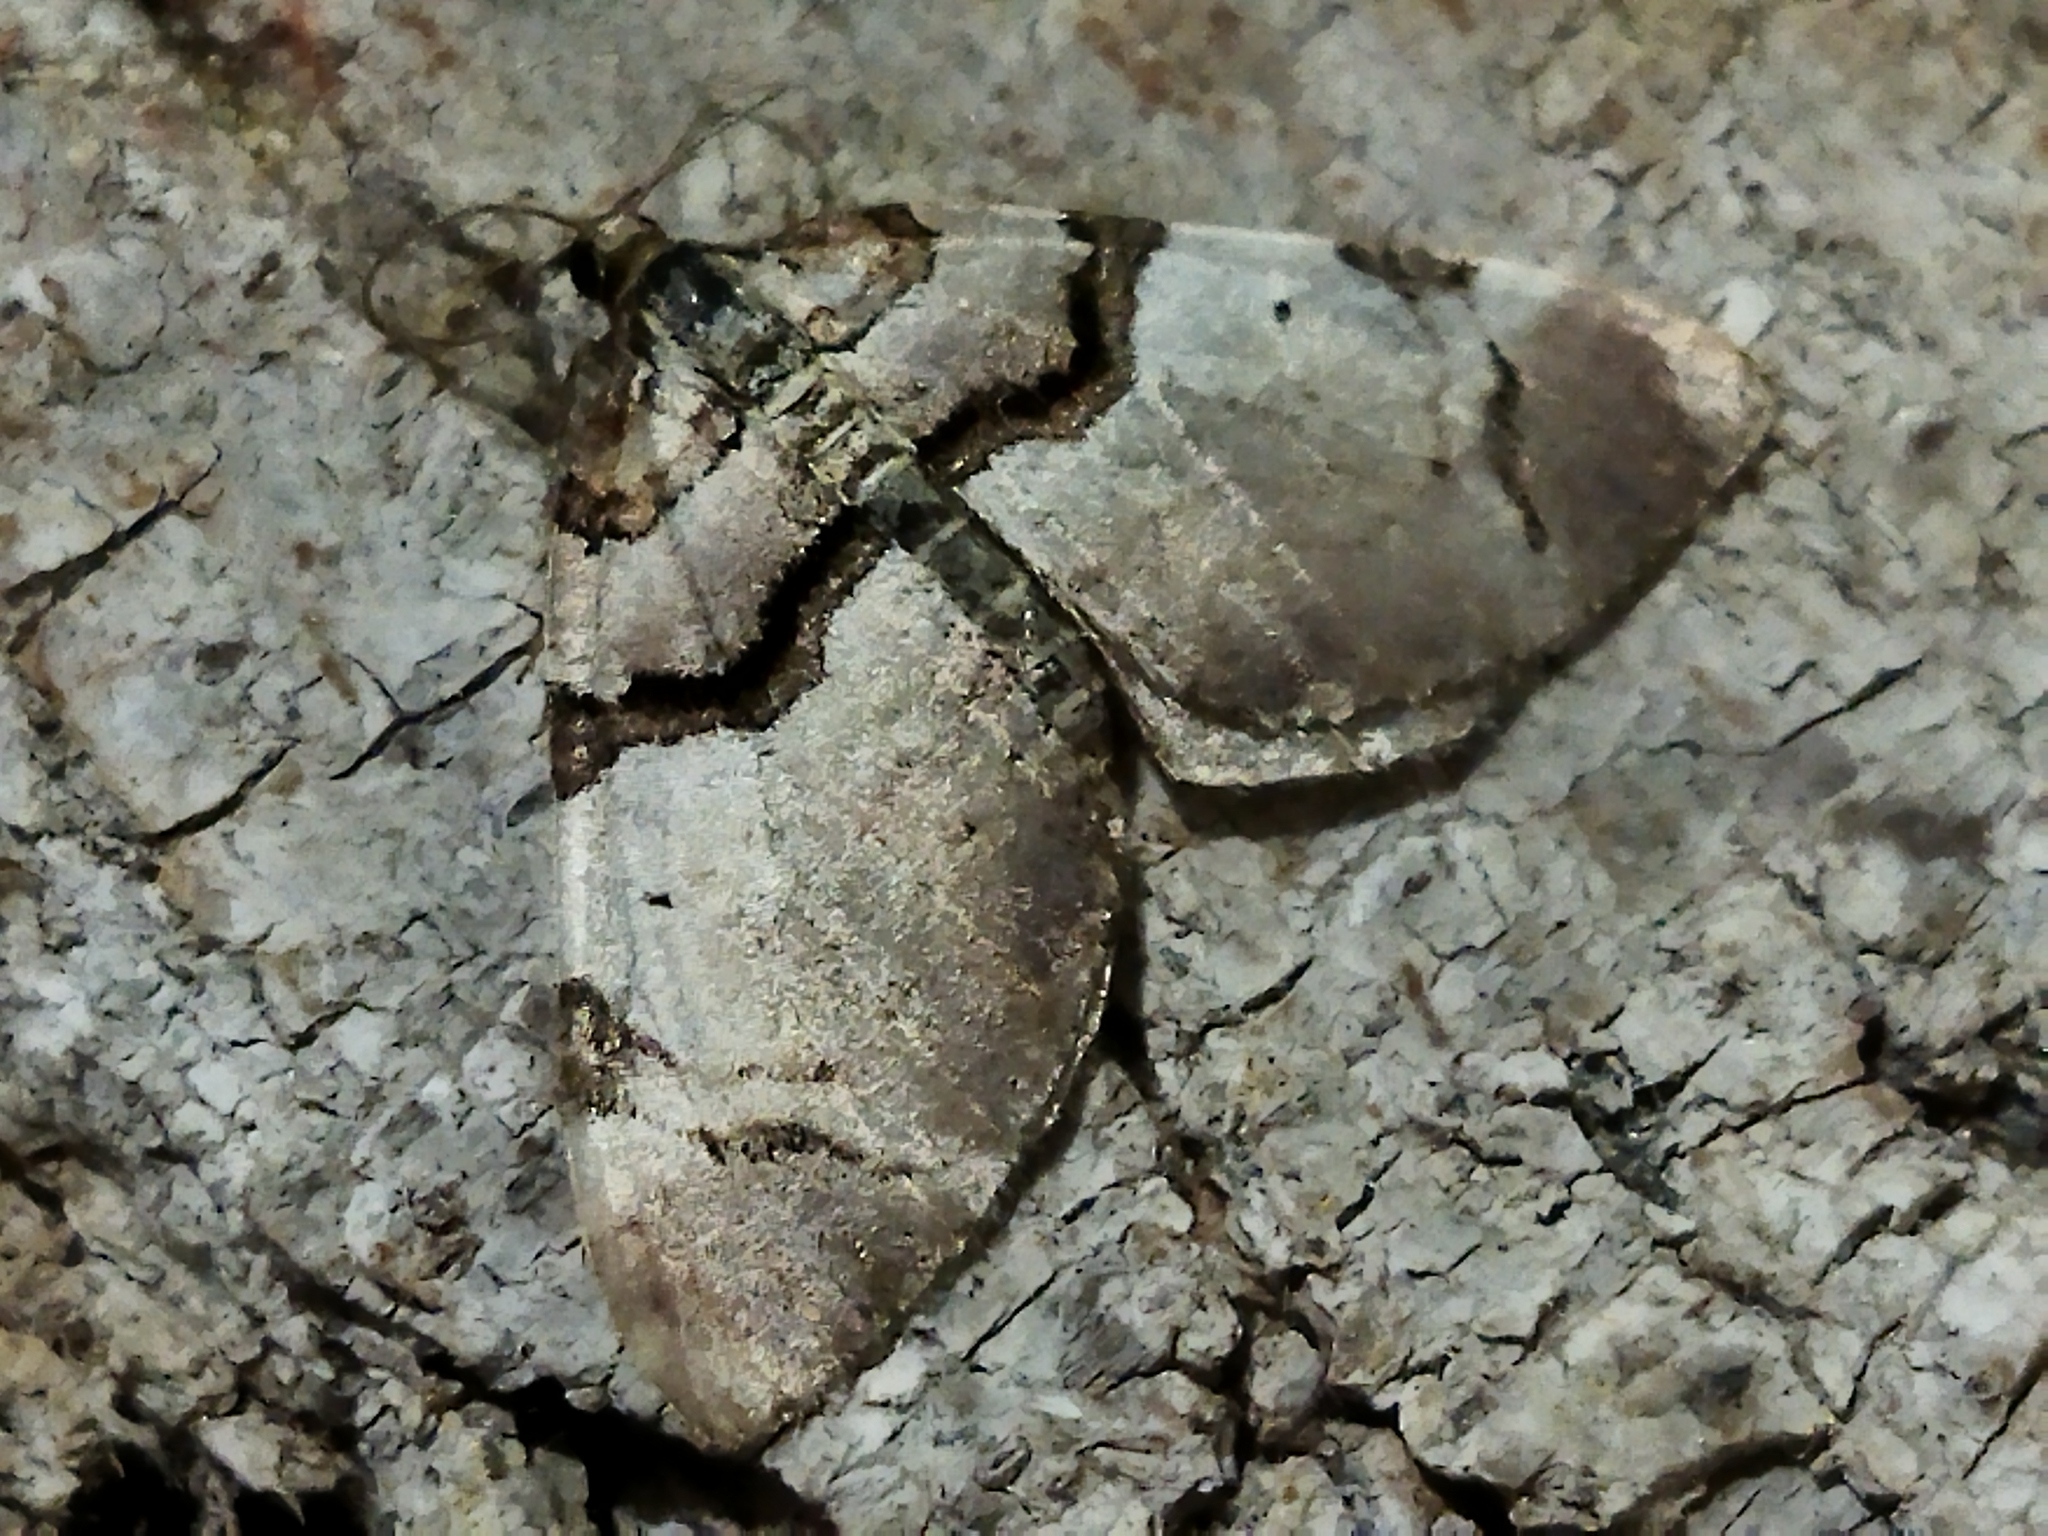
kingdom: Animalia
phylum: Arthropoda
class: Insecta
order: Lepidoptera
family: Geometridae
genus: Anticlea
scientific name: Anticlea derivata
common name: Streamer
